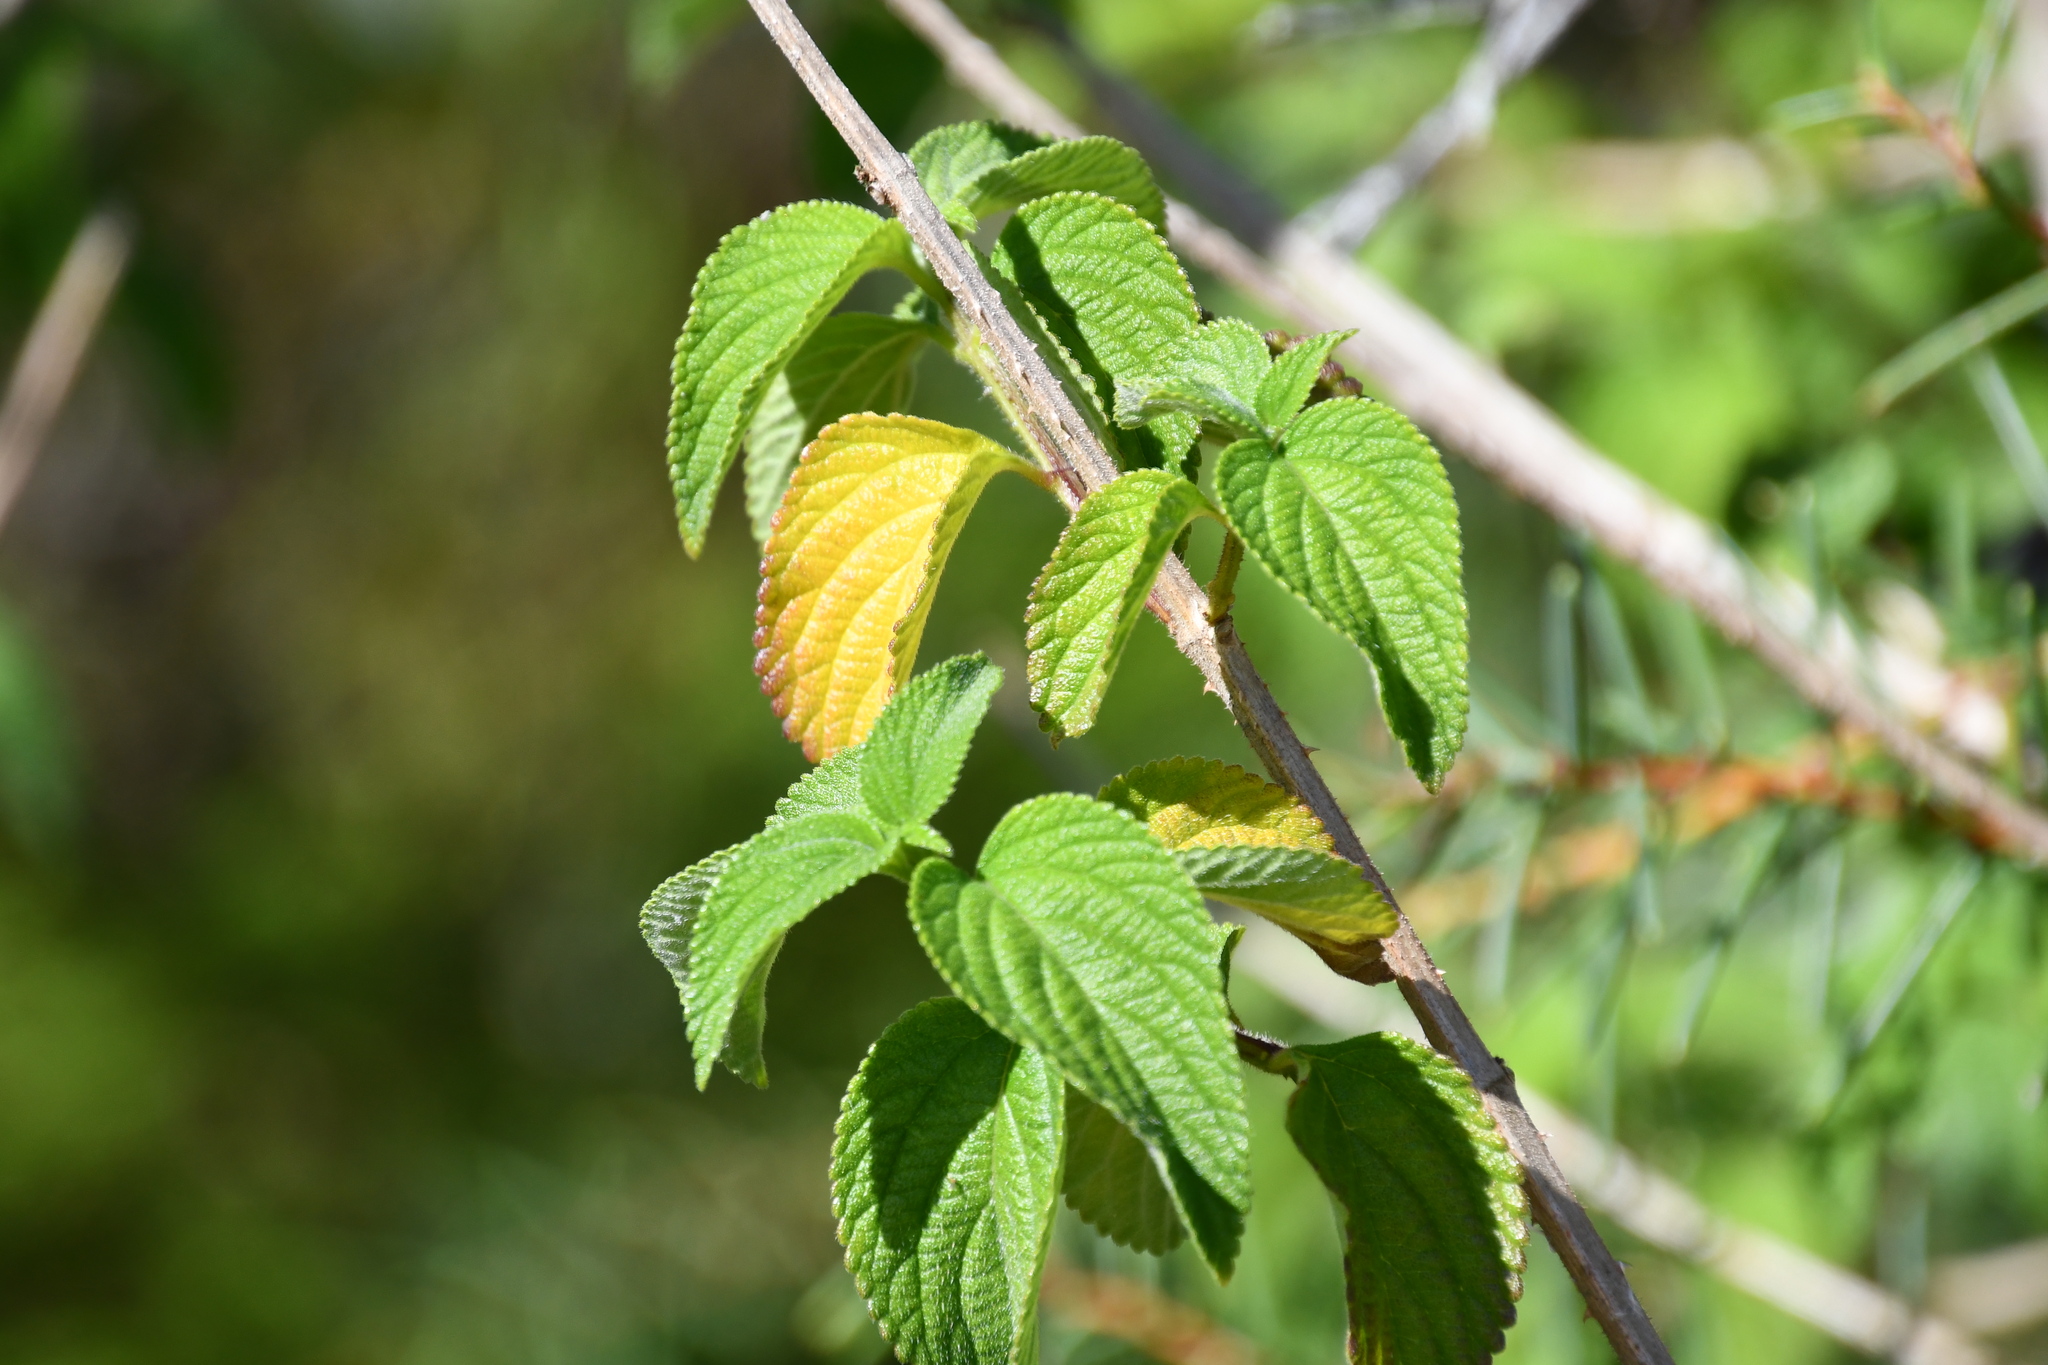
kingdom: Plantae
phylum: Tracheophyta
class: Magnoliopsida
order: Lamiales
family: Verbenaceae
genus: Lantana
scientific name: Lantana camara
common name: Lantana
